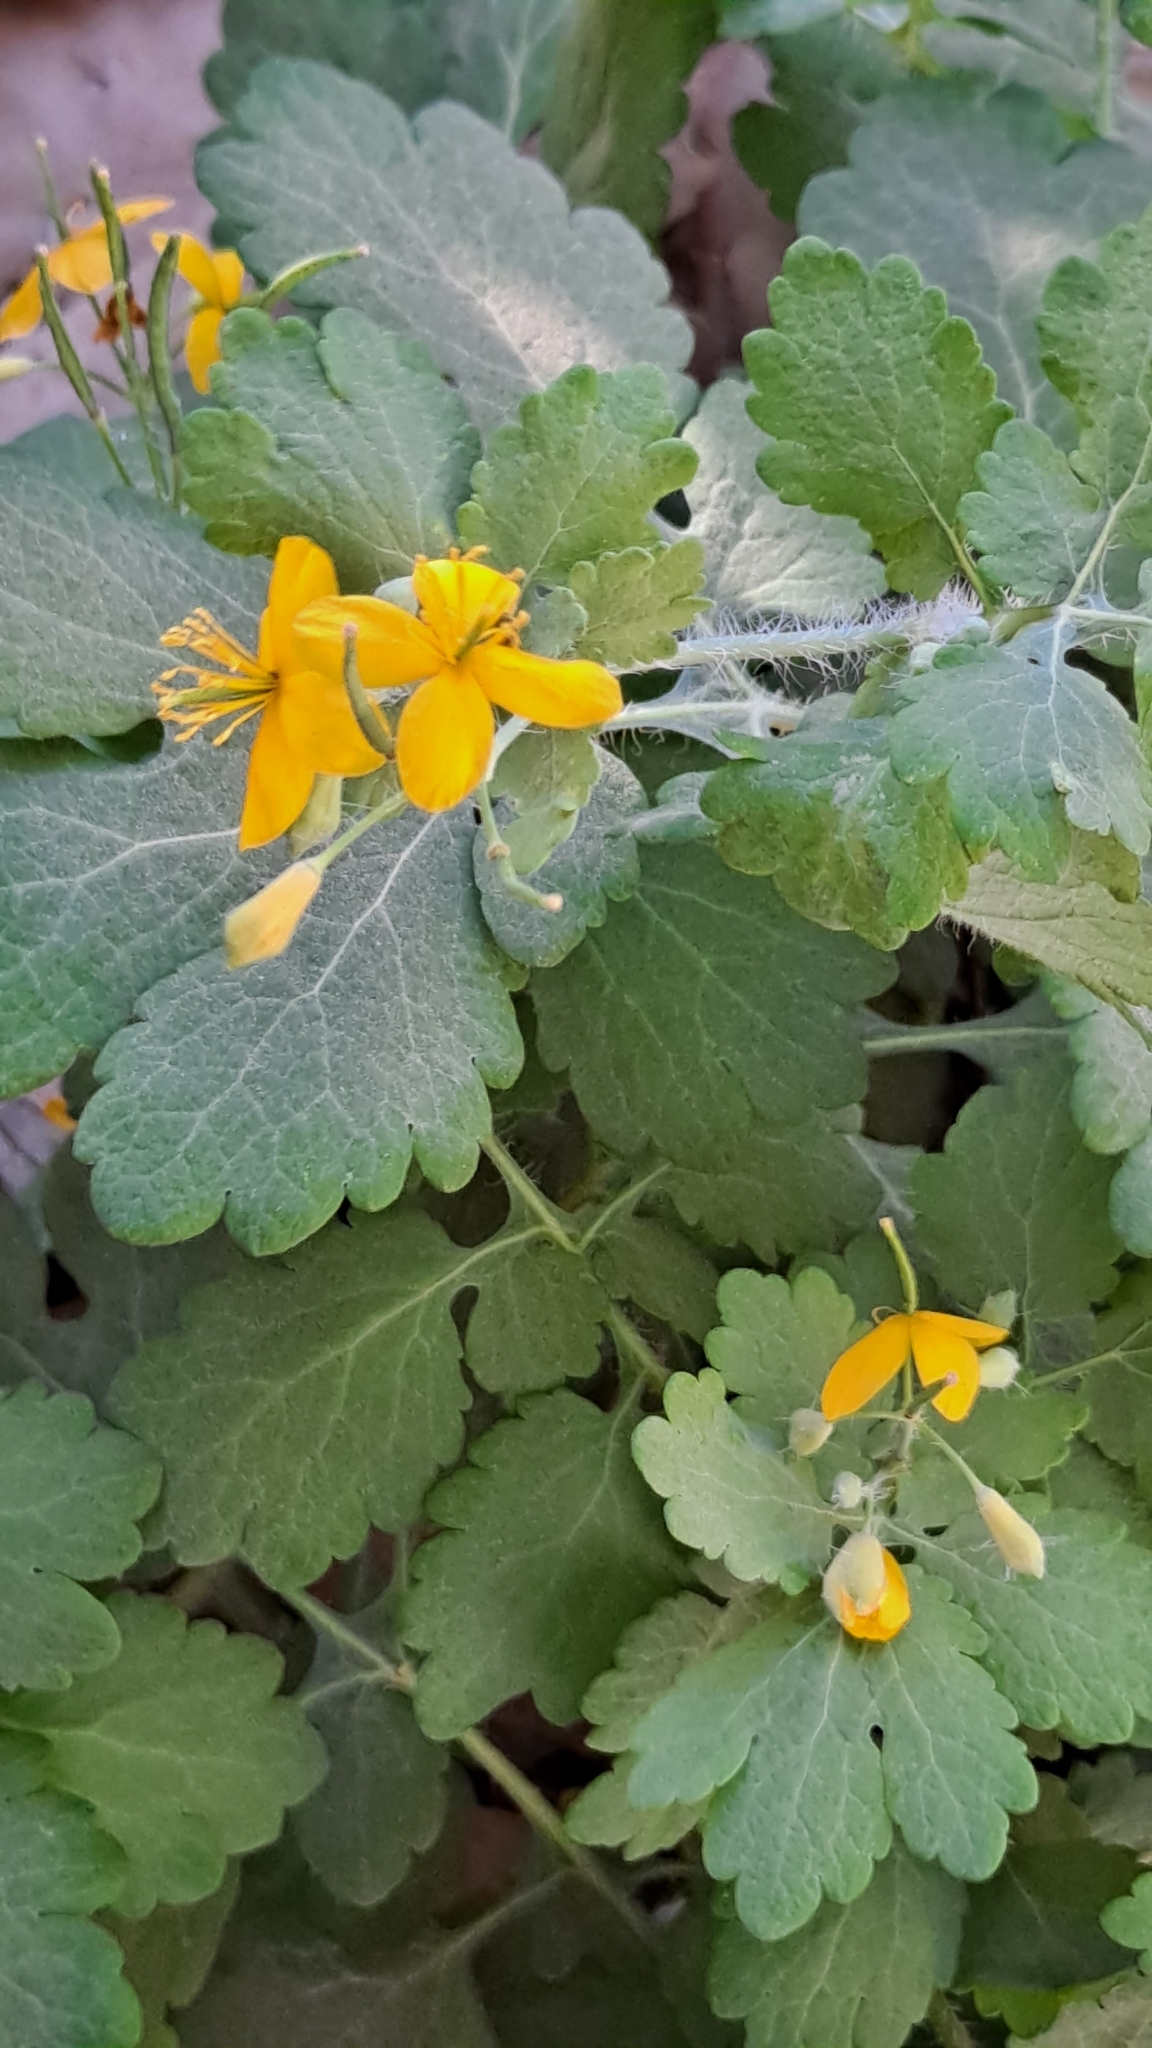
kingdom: Plantae
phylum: Tracheophyta
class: Magnoliopsida
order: Ranunculales
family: Papaveraceae
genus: Chelidonium
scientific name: Chelidonium majus
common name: Greater celandine
